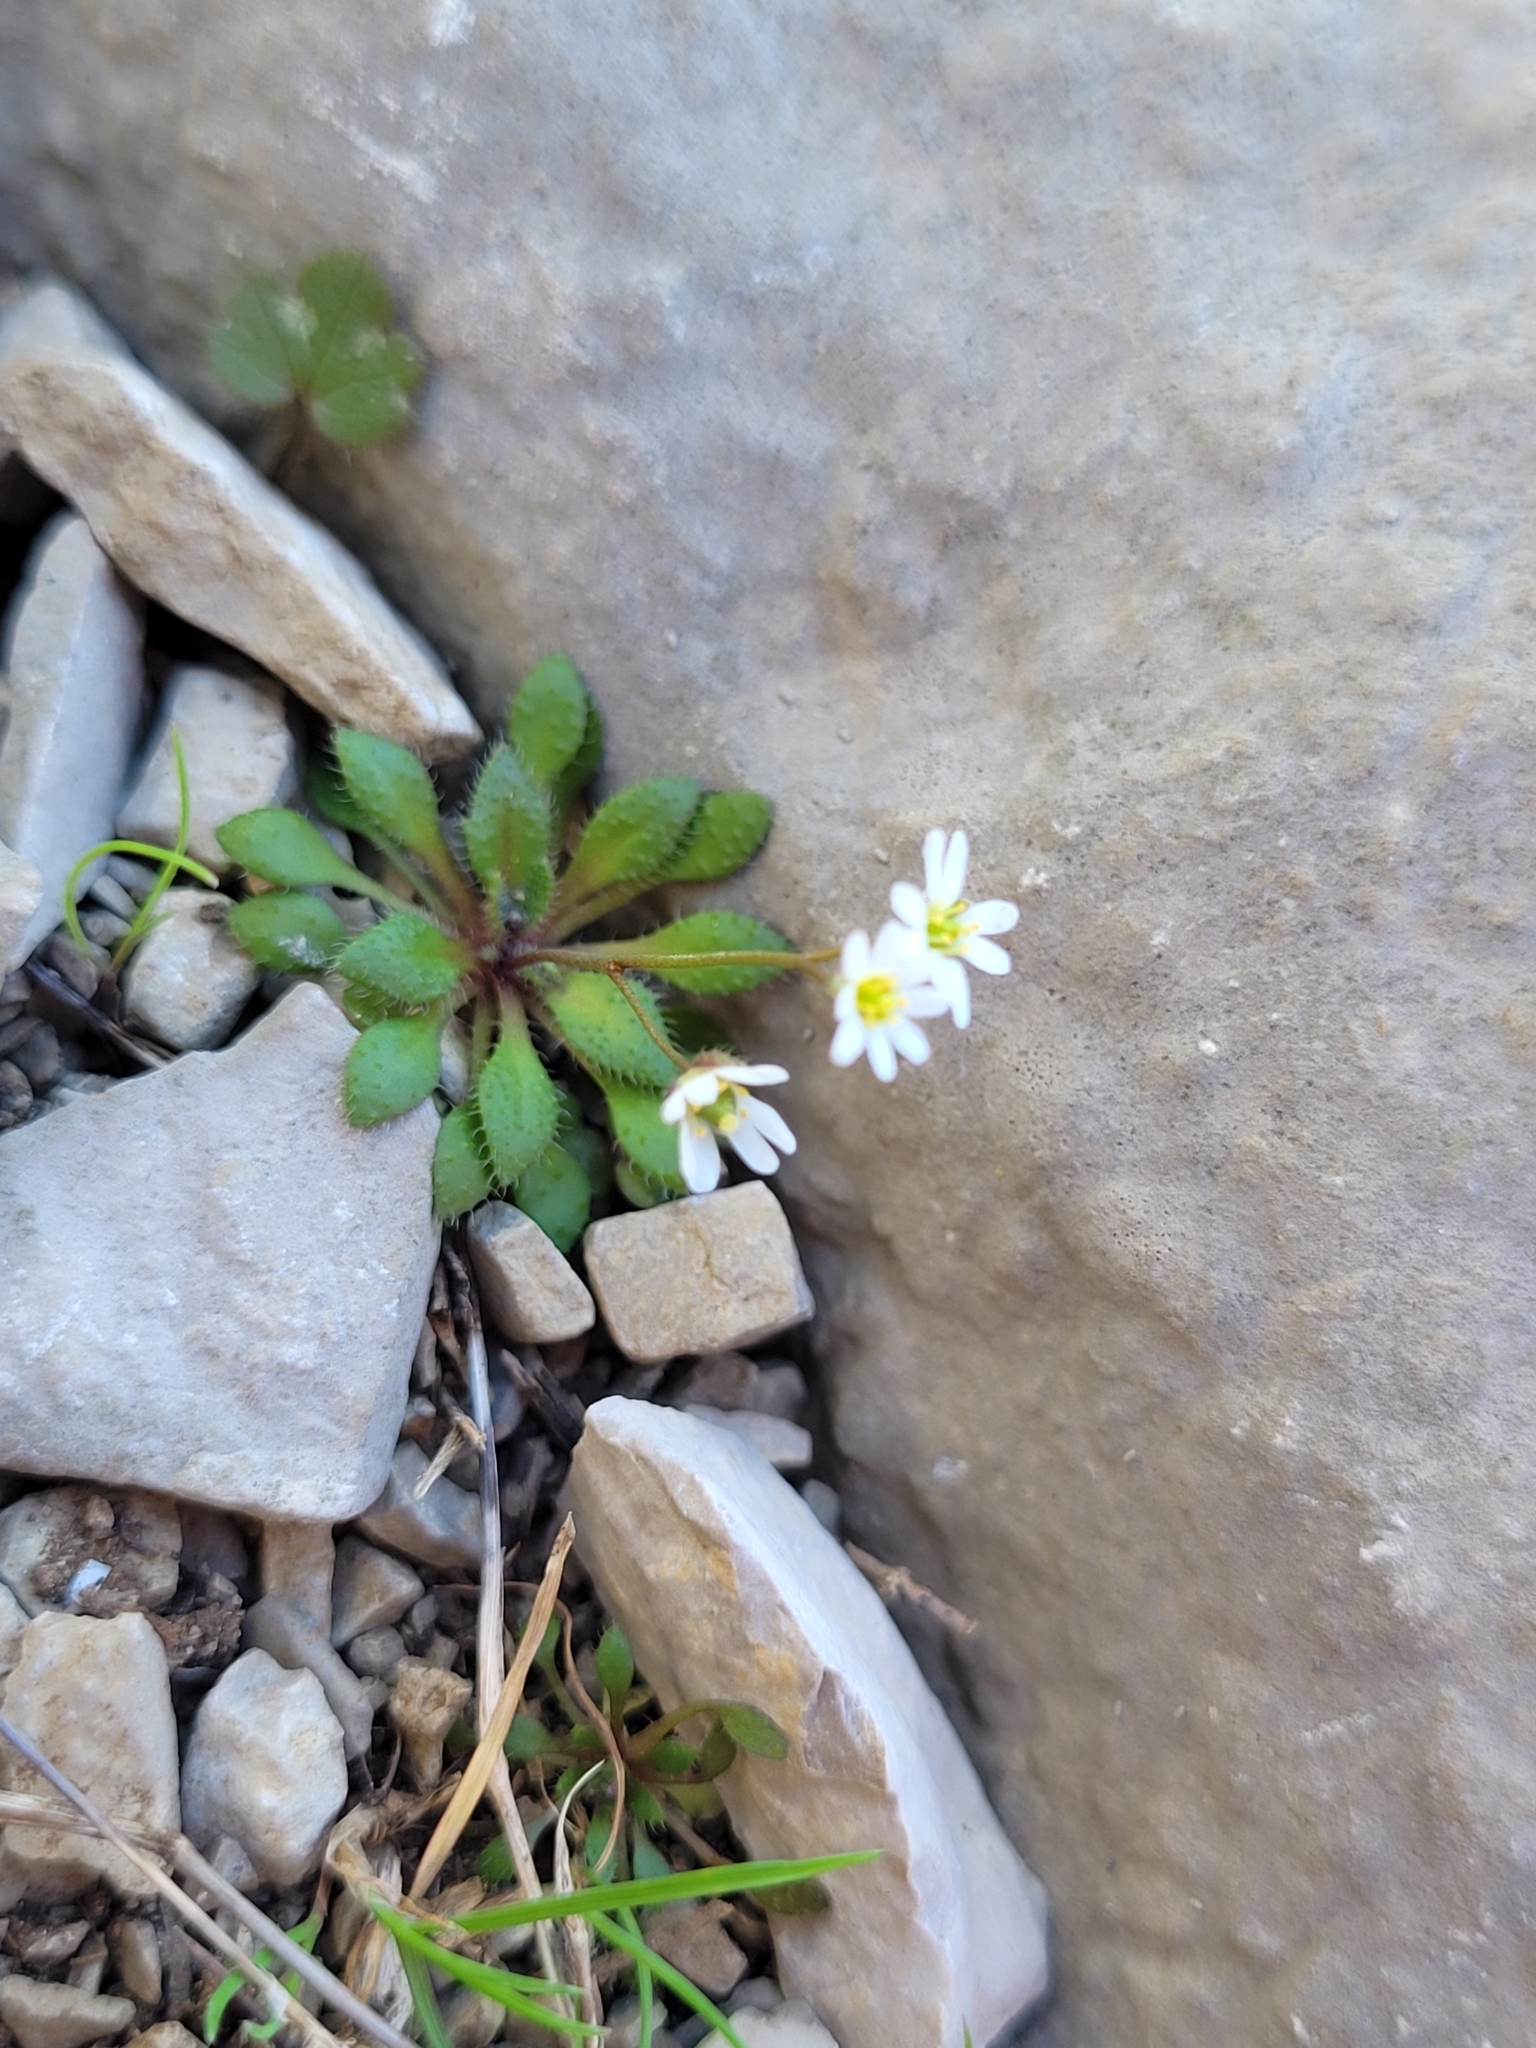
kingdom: Plantae
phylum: Tracheophyta
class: Magnoliopsida
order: Brassicales
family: Brassicaceae
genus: Draba
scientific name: Draba verna
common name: Spring draba
